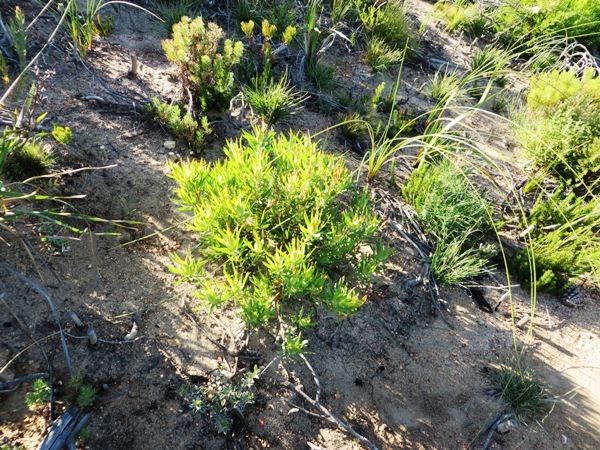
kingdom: Plantae
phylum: Tracheophyta
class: Magnoliopsida
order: Proteales
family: Proteaceae
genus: Leucadendron
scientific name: Leucadendron salignum
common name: Common sunshine conebush
